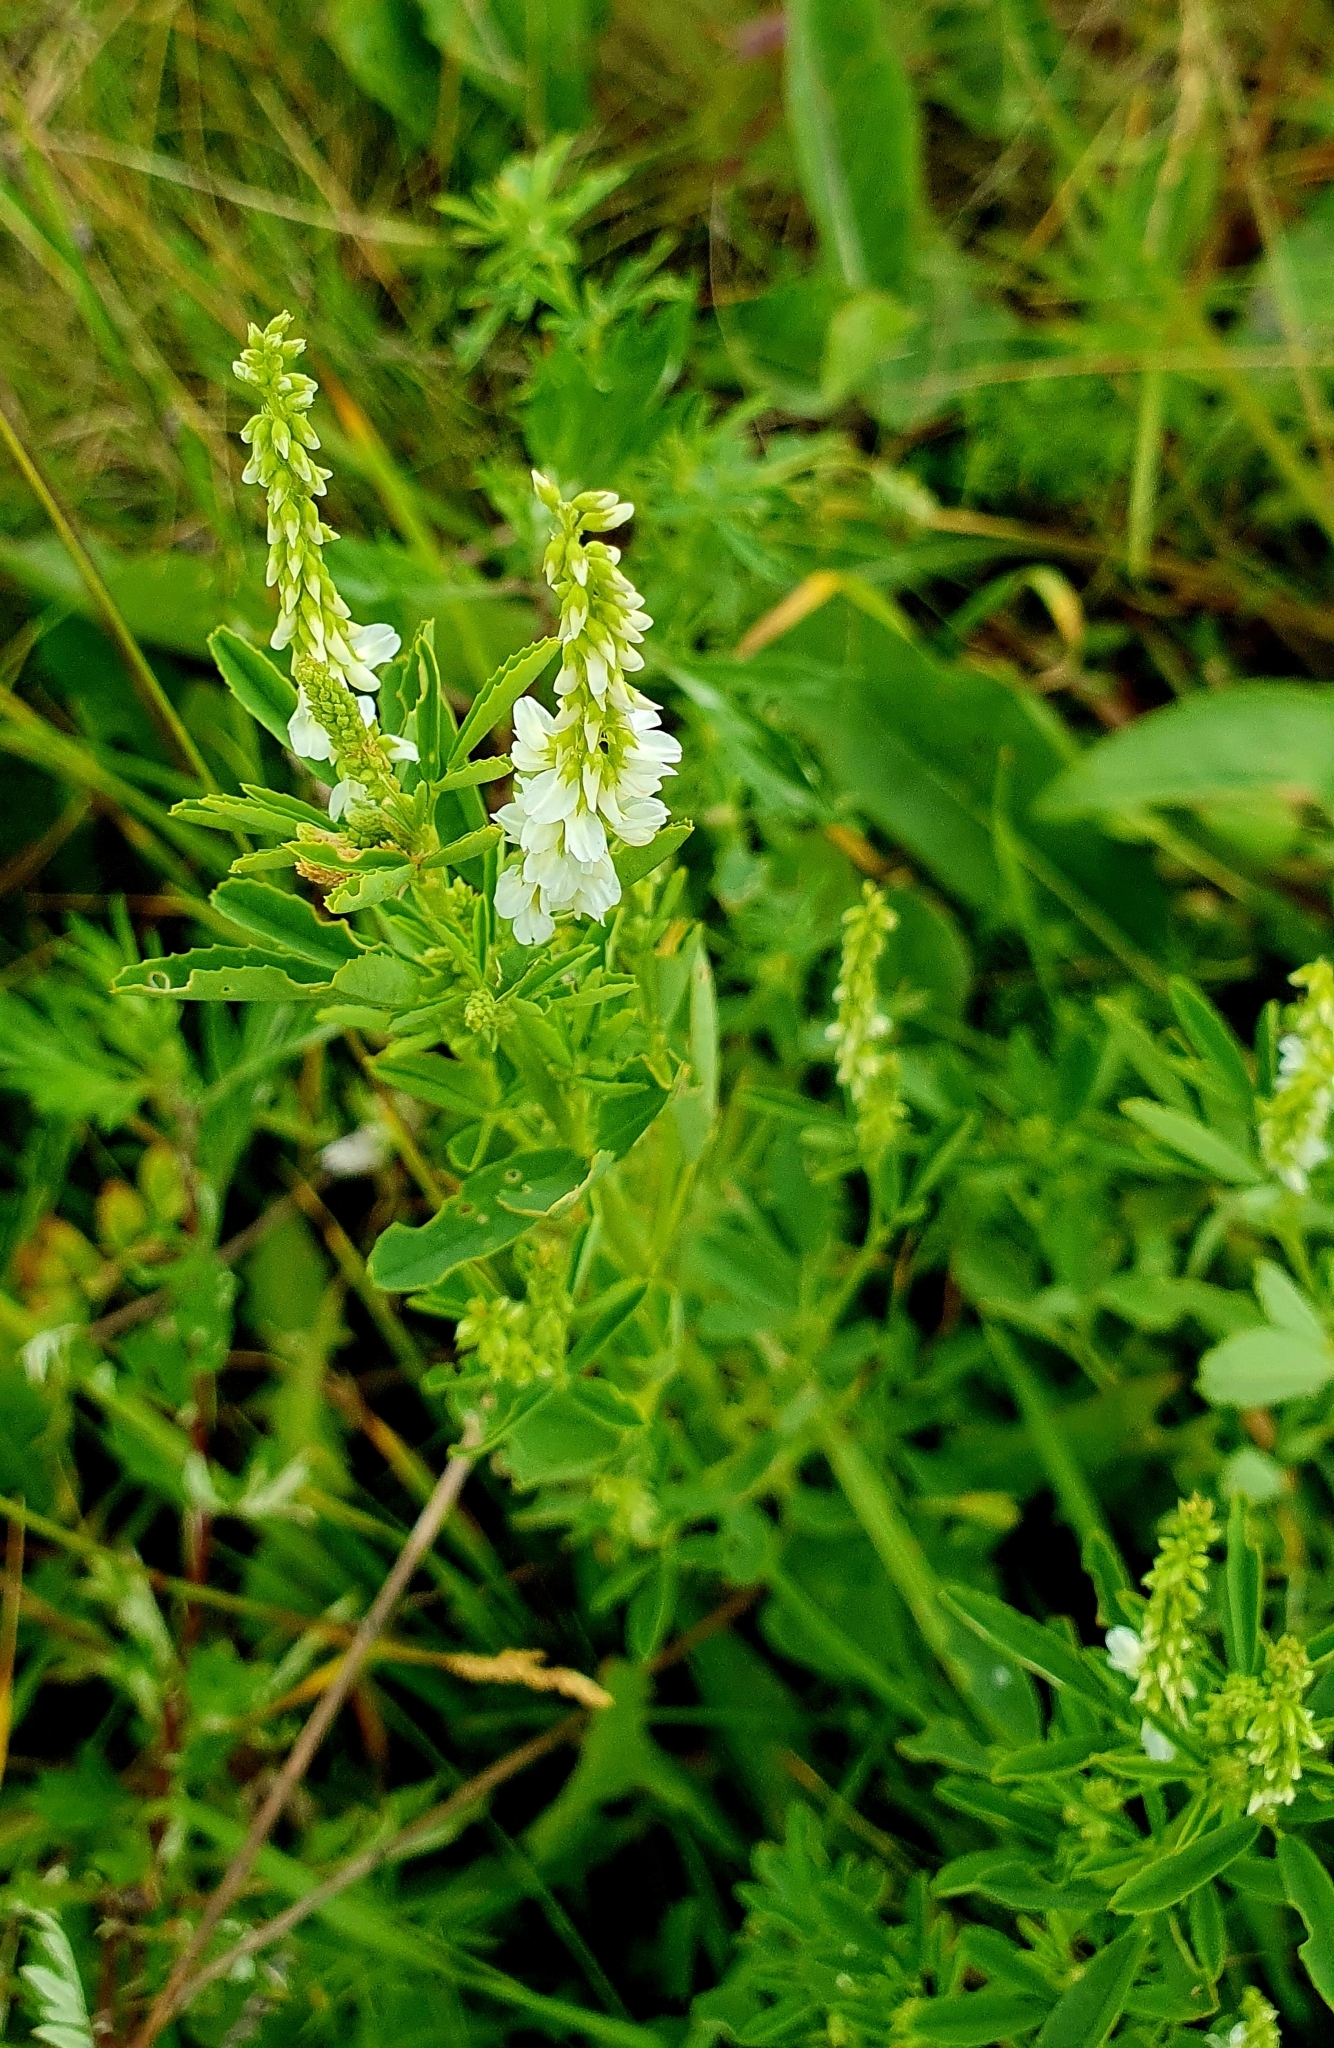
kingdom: Plantae
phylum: Tracheophyta
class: Magnoliopsida
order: Fabales
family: Fabaceae
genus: Melilotus
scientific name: Melilotus albus
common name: White melilot
